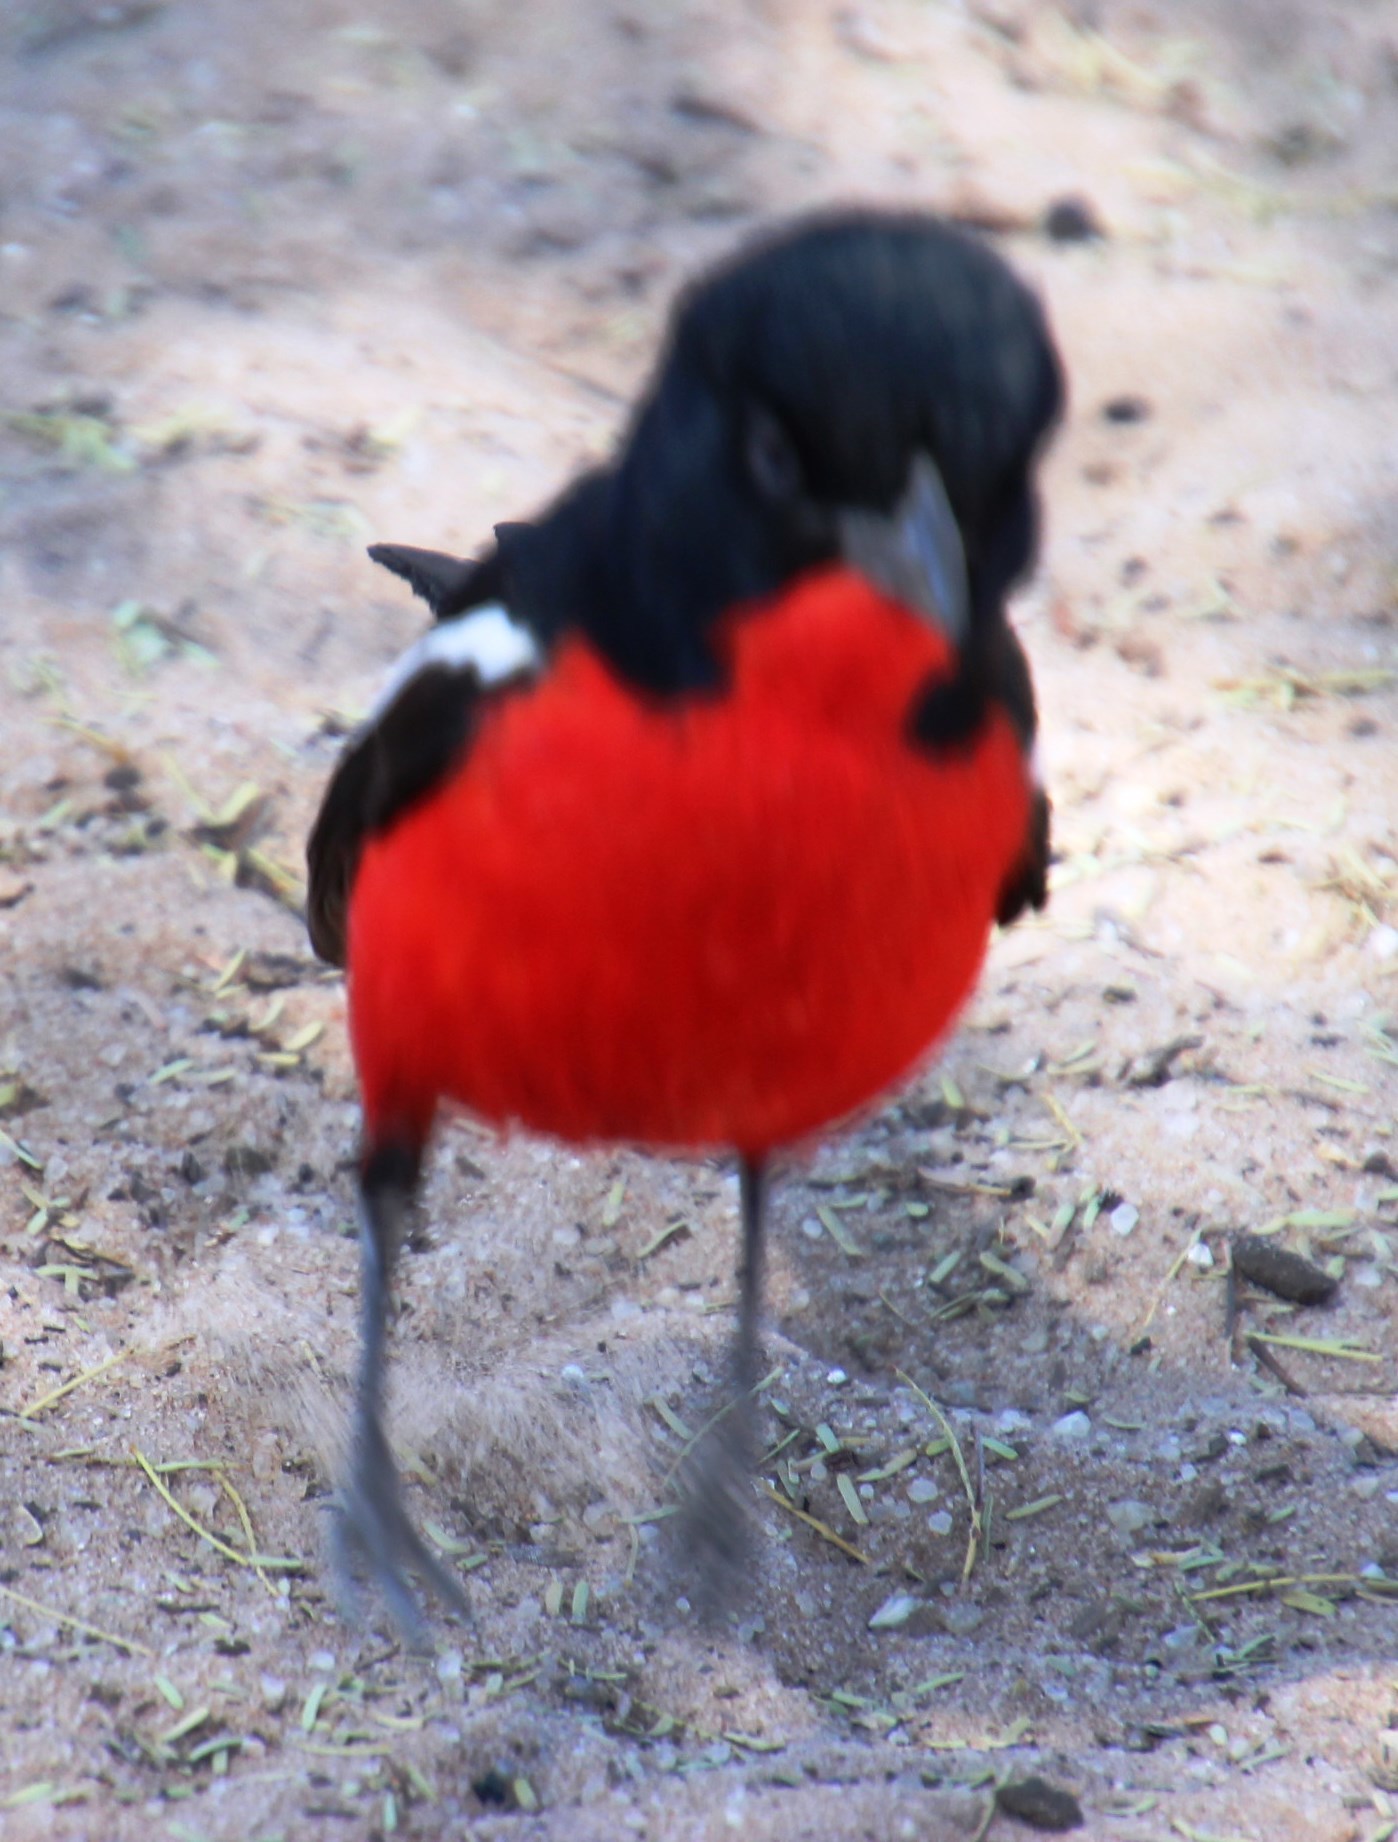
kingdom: Animalia
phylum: Chordata
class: Aves
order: Passeriformes
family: Malaconotidae
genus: Laniarius
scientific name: Laniarius atrococcineus
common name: Crimson-breasted shrike
